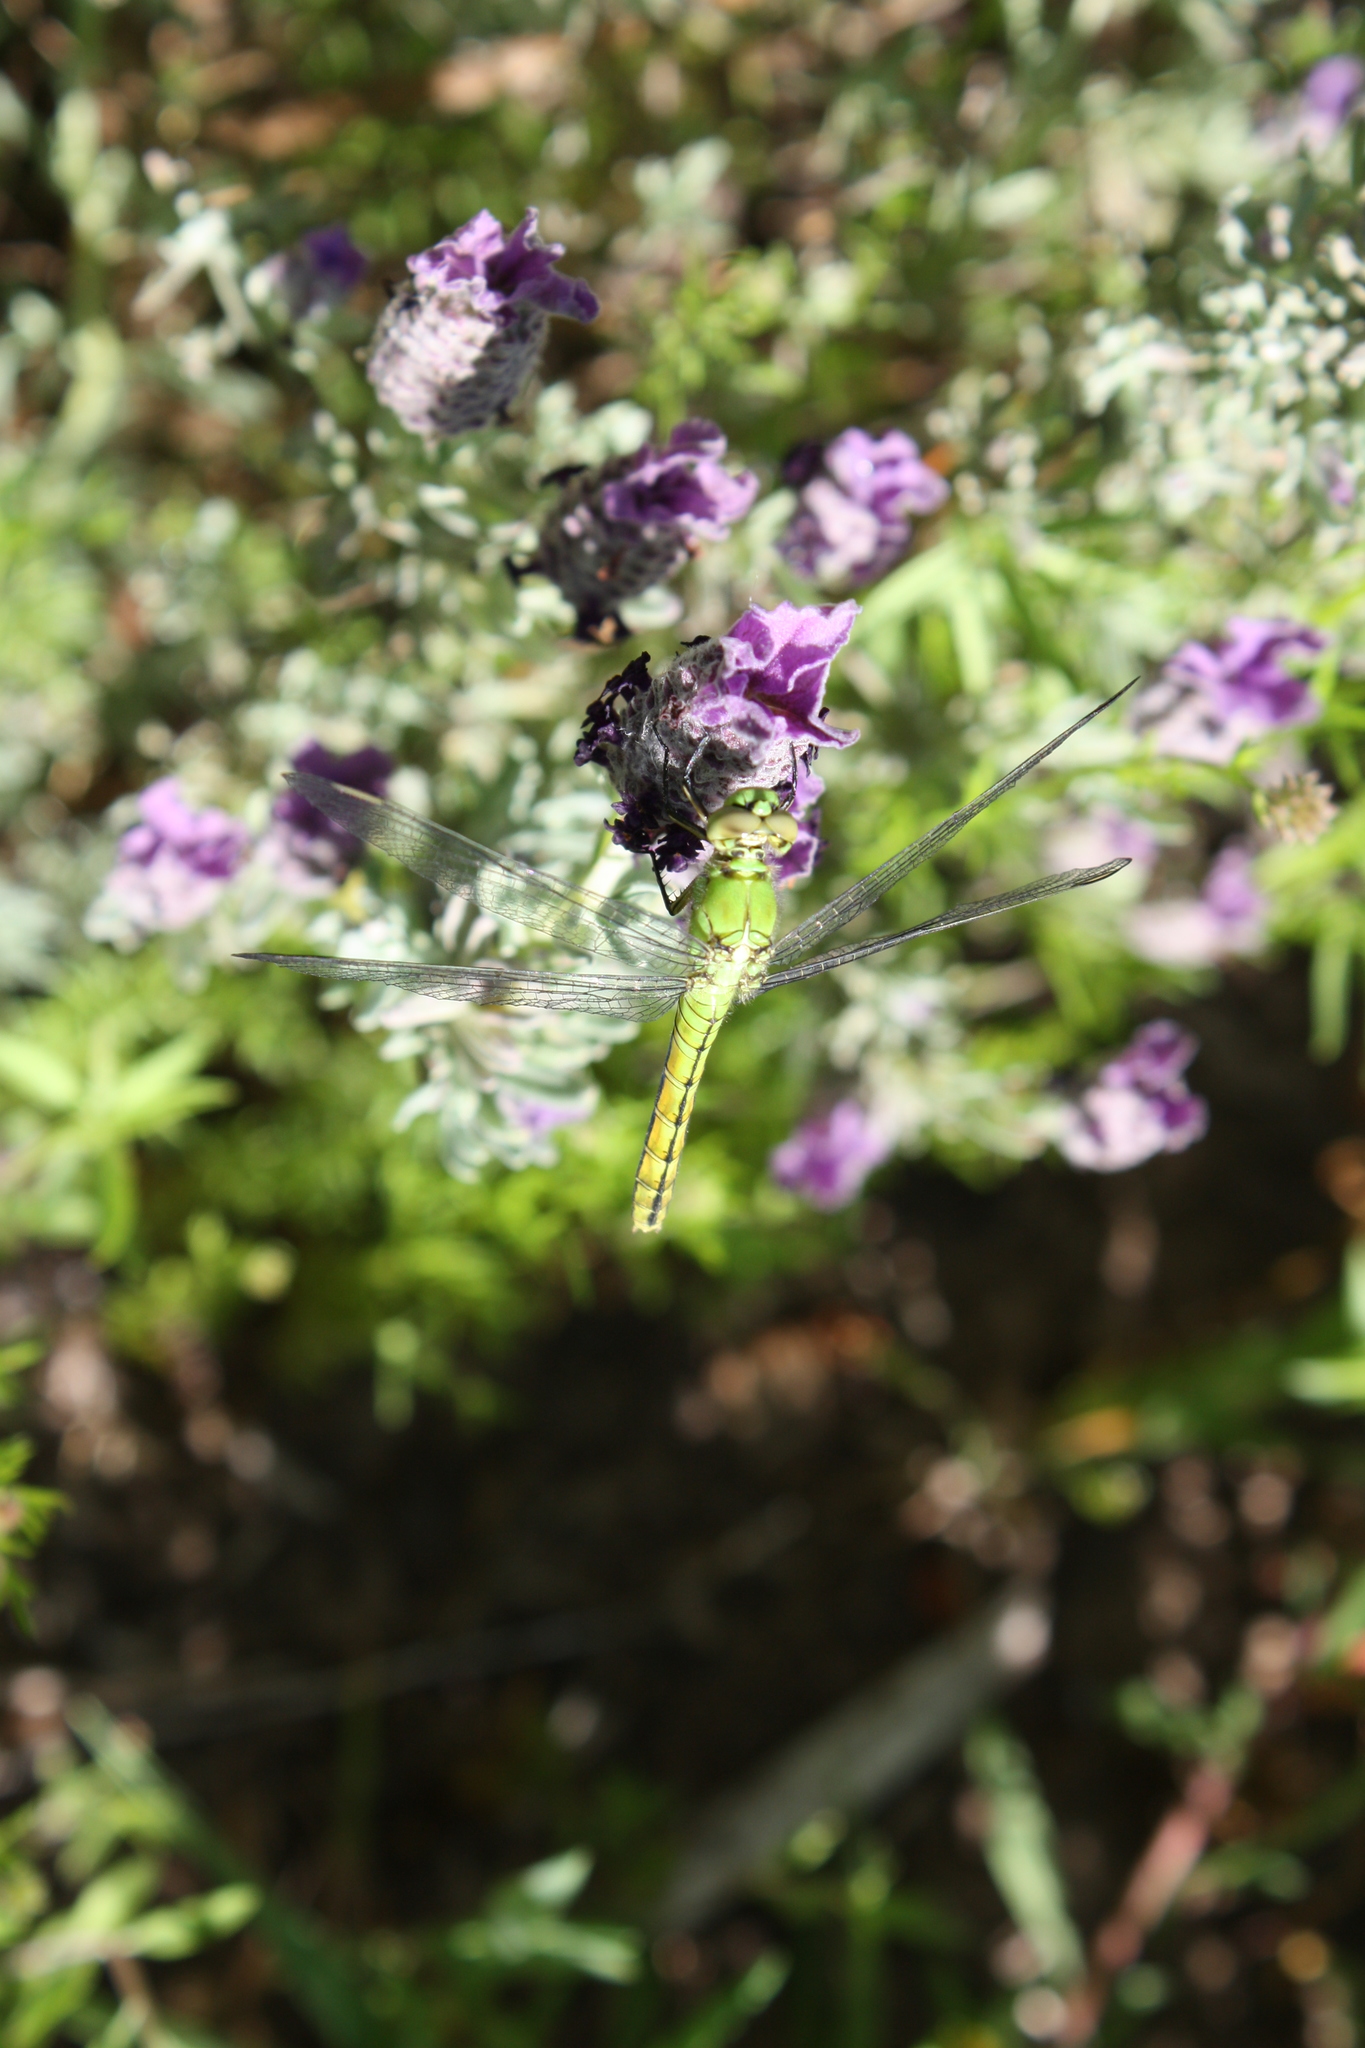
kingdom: Animalia
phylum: Arthropoda
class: Insecta
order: Odonata
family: Libellulidae
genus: Erythemis
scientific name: Erythemis collocata
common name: Western pondhawk
